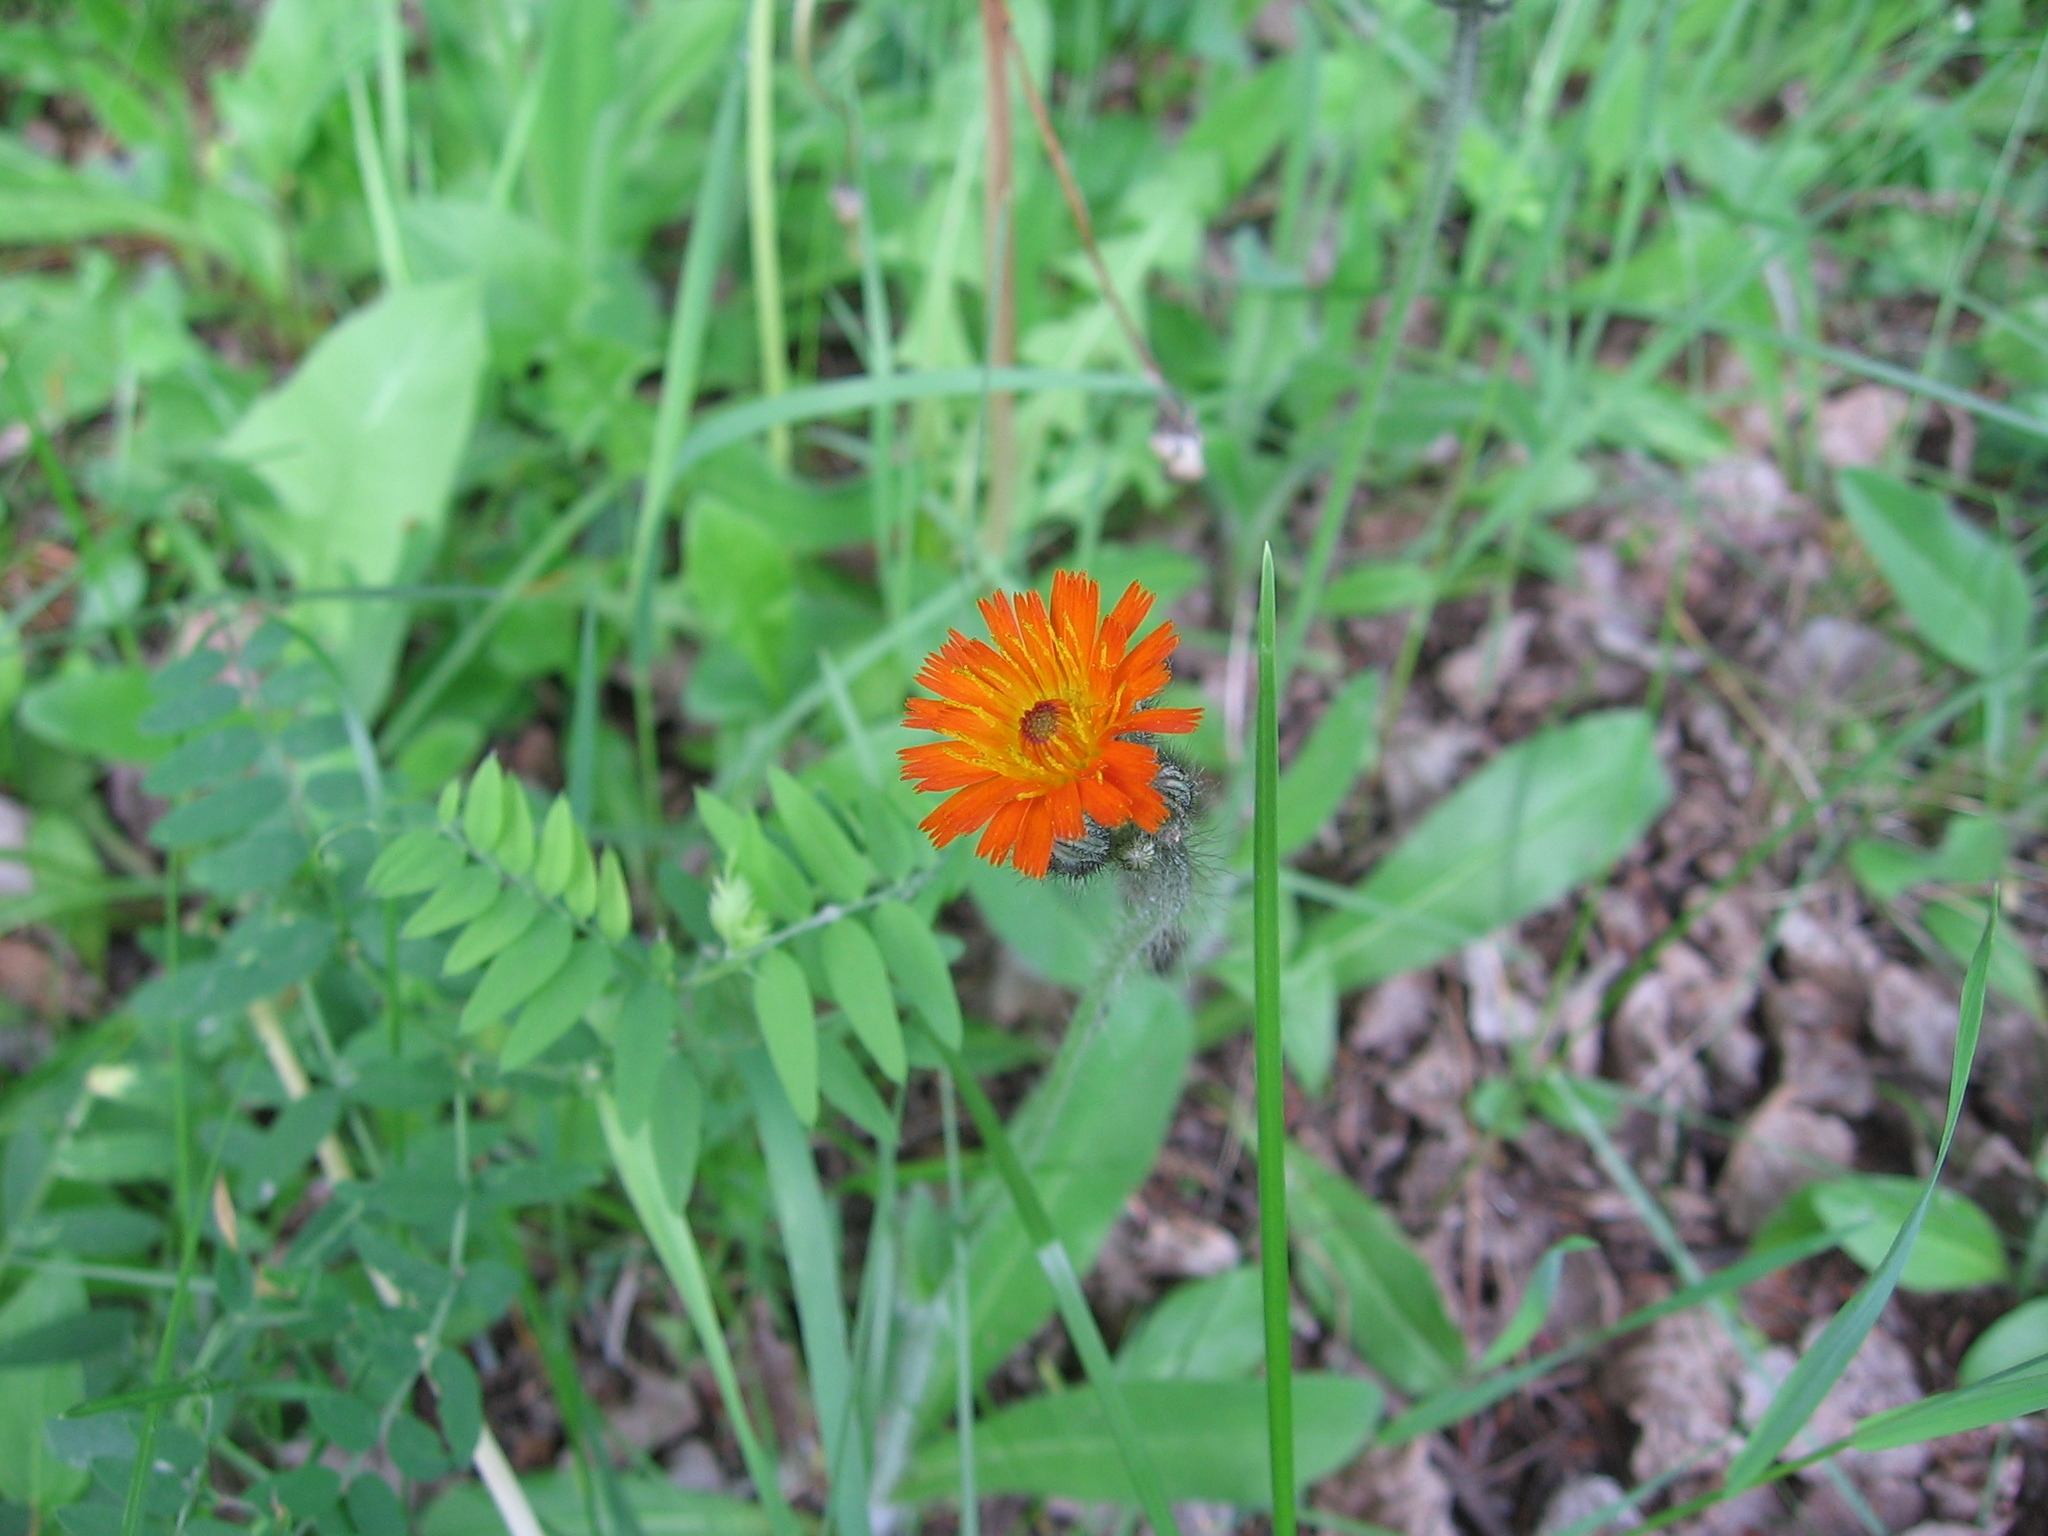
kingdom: Plantae
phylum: Tracheophyta
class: Magnoliopsida
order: Asterales
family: Asteraceae
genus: Pilosella
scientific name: Pilosella aurantiaca
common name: Fox-and-cubs
